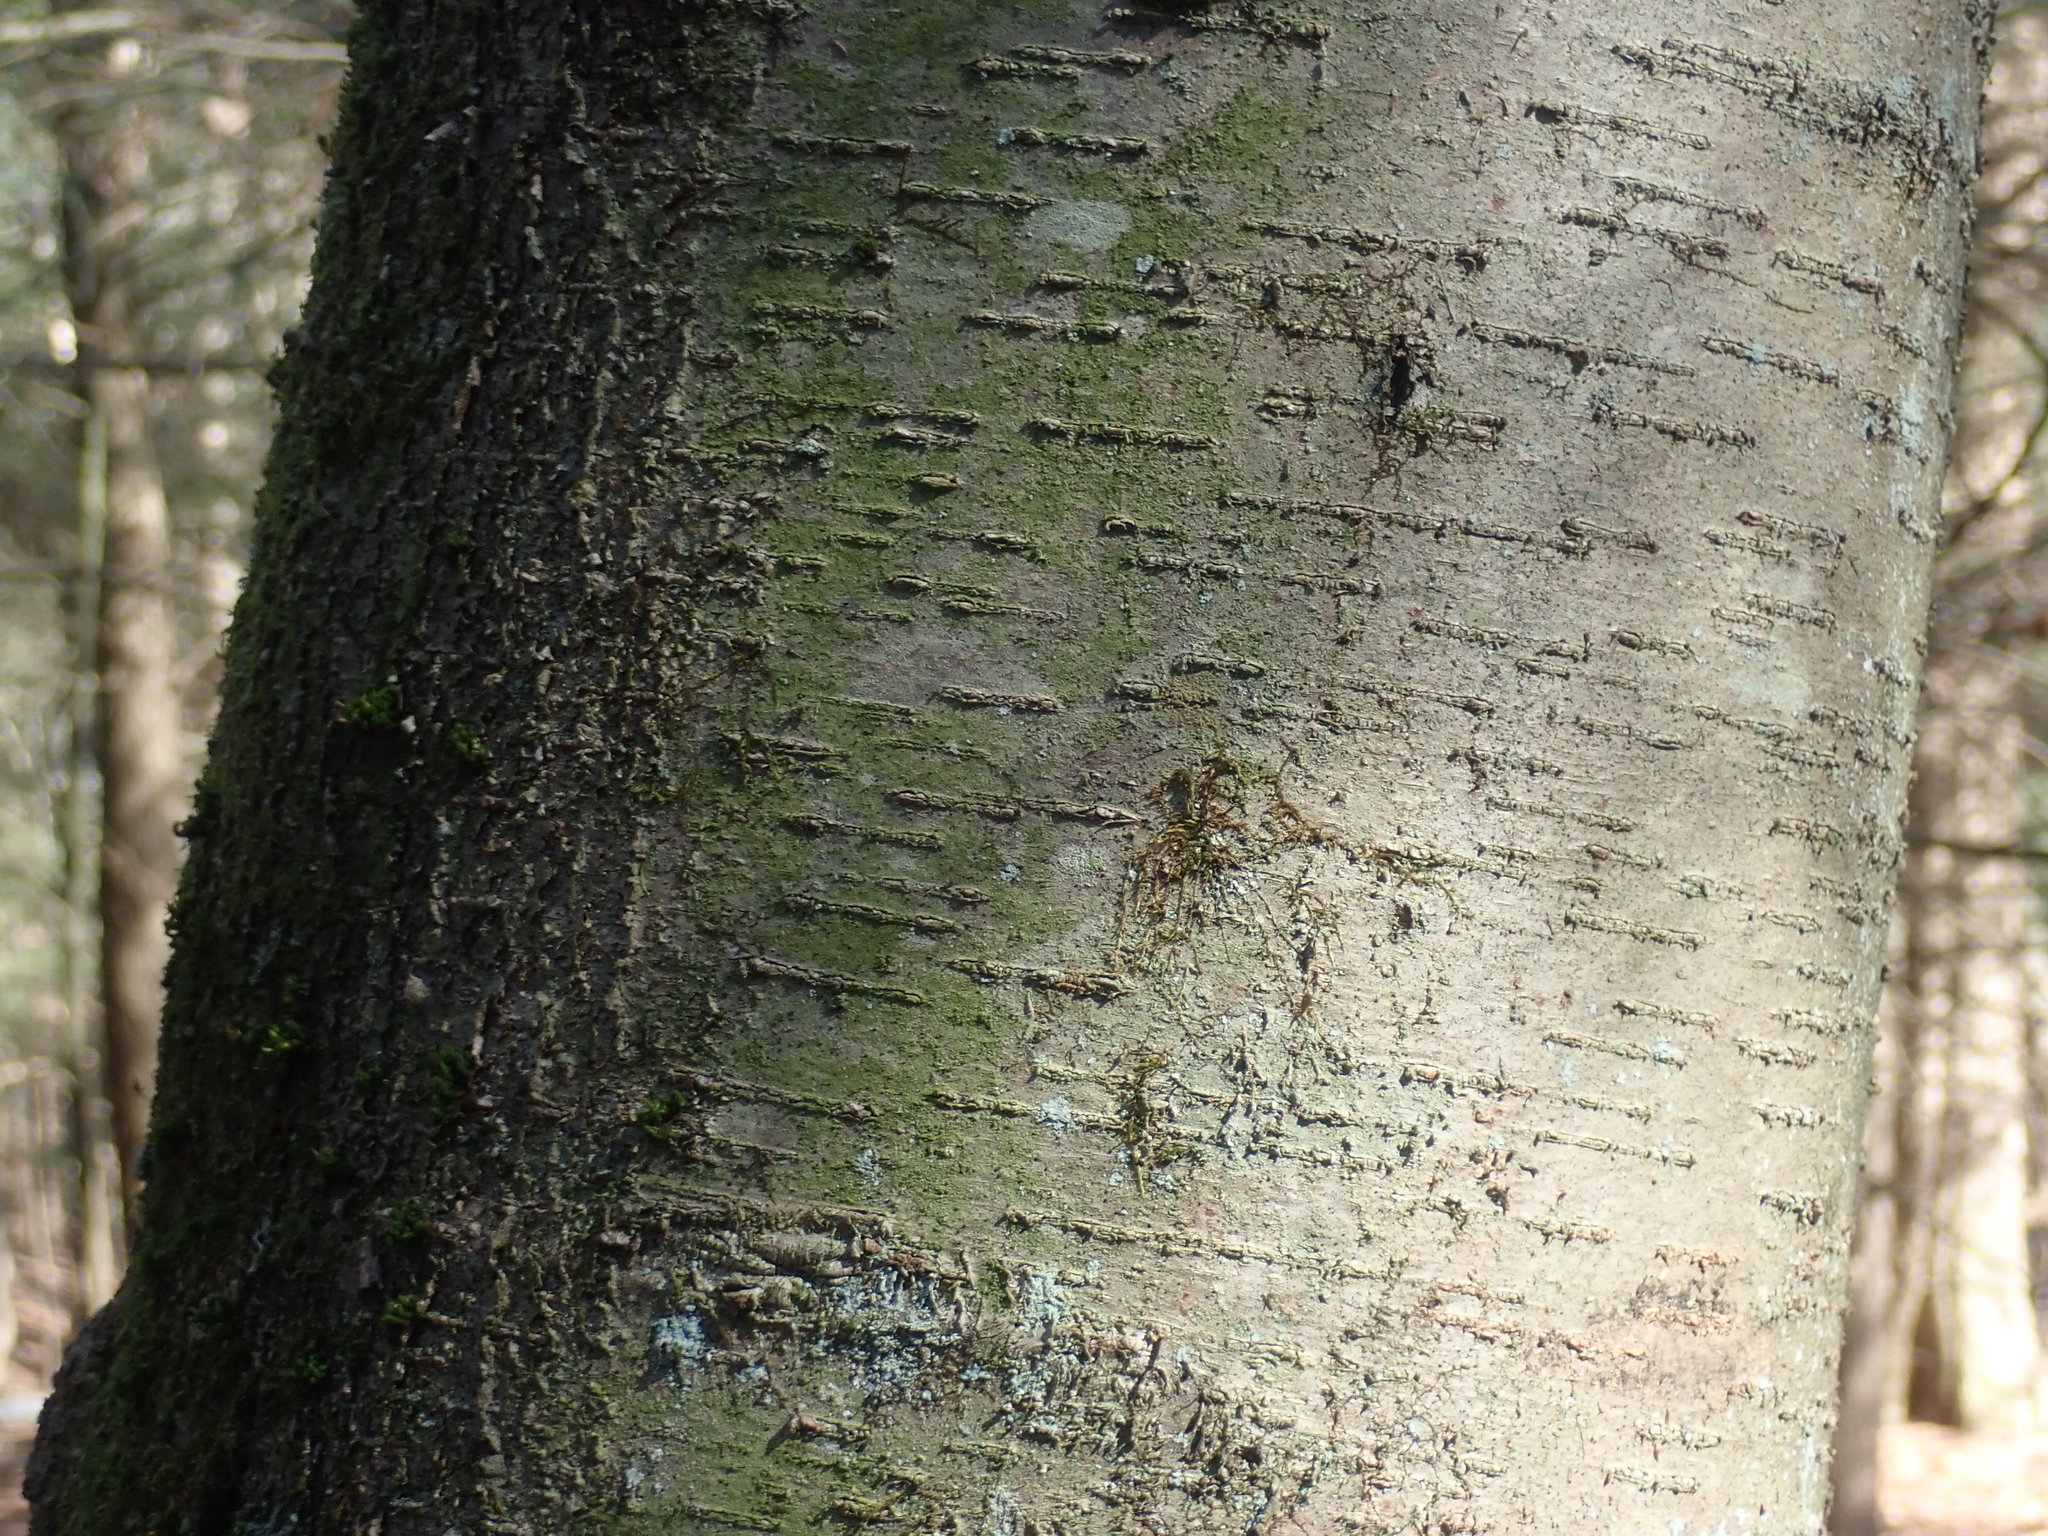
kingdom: Plantae
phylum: Tracheophyta
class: Magnoliopsida
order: Fagales
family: Betulaceae
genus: Betula
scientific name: Betula lenta
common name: Black birch
